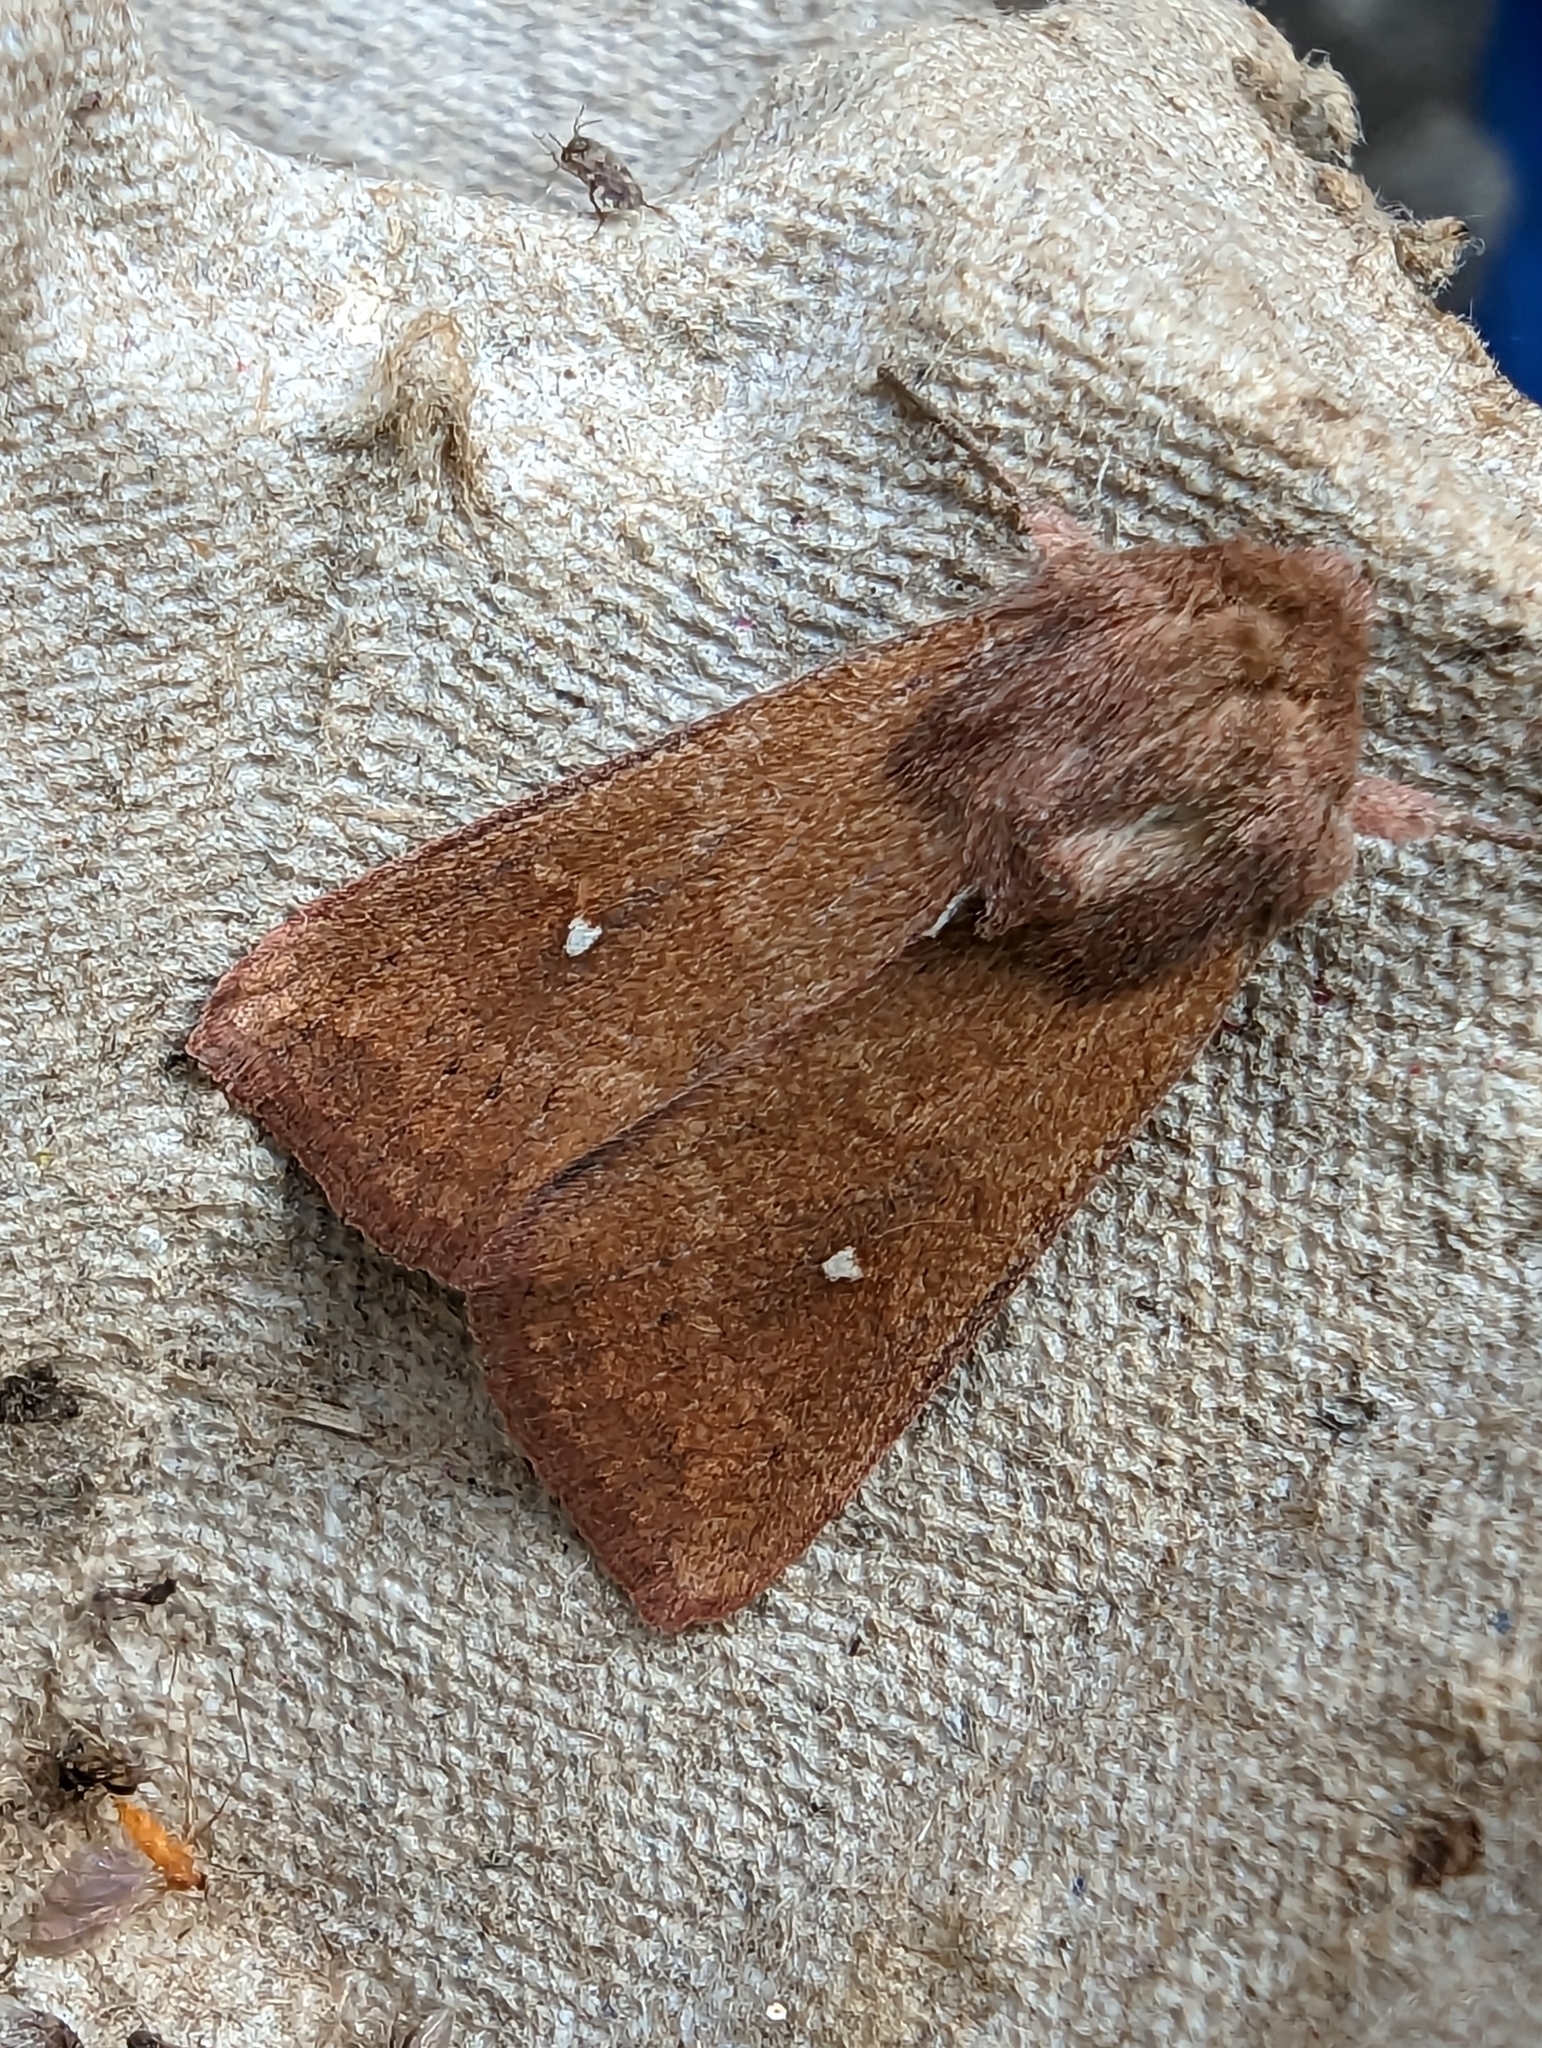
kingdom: Animalia
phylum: Arthropoda
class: Insecta
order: Lepidoptera
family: Noctuidae
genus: Mythimna
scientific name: Mythimna albipuncta
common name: White-point
